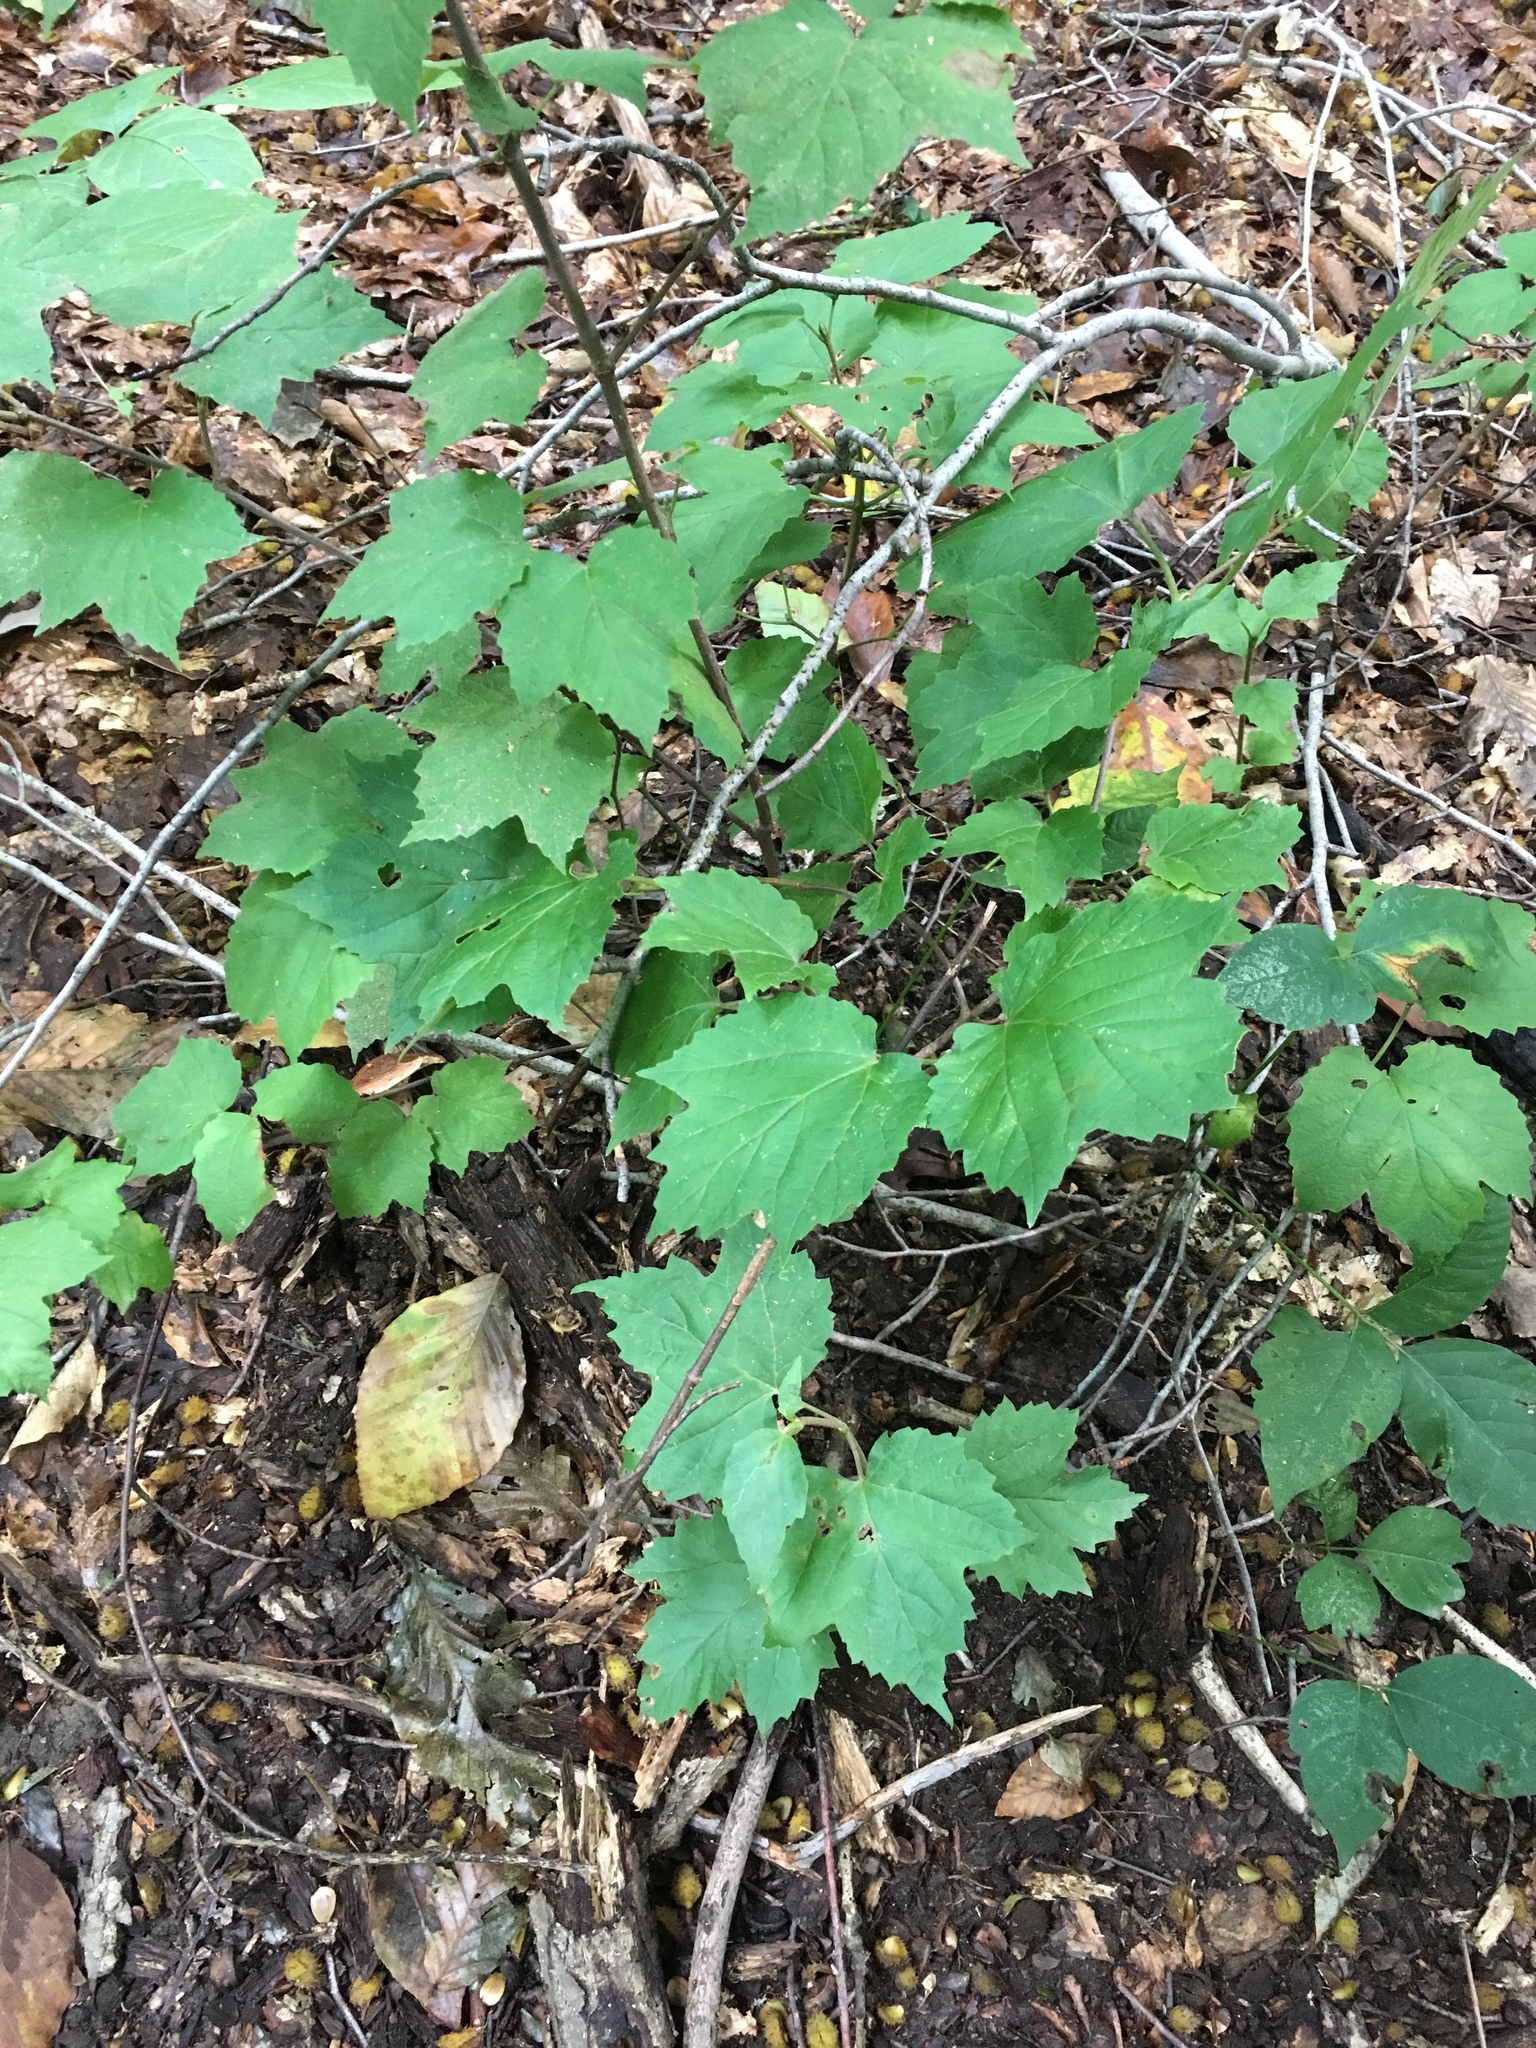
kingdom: Plantae
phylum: Tracheophyta
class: Magnoliopsida
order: Dipsacales
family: Viburnaceae
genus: Viburnum
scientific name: Viburnum acerifolium
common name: Dockmackie
